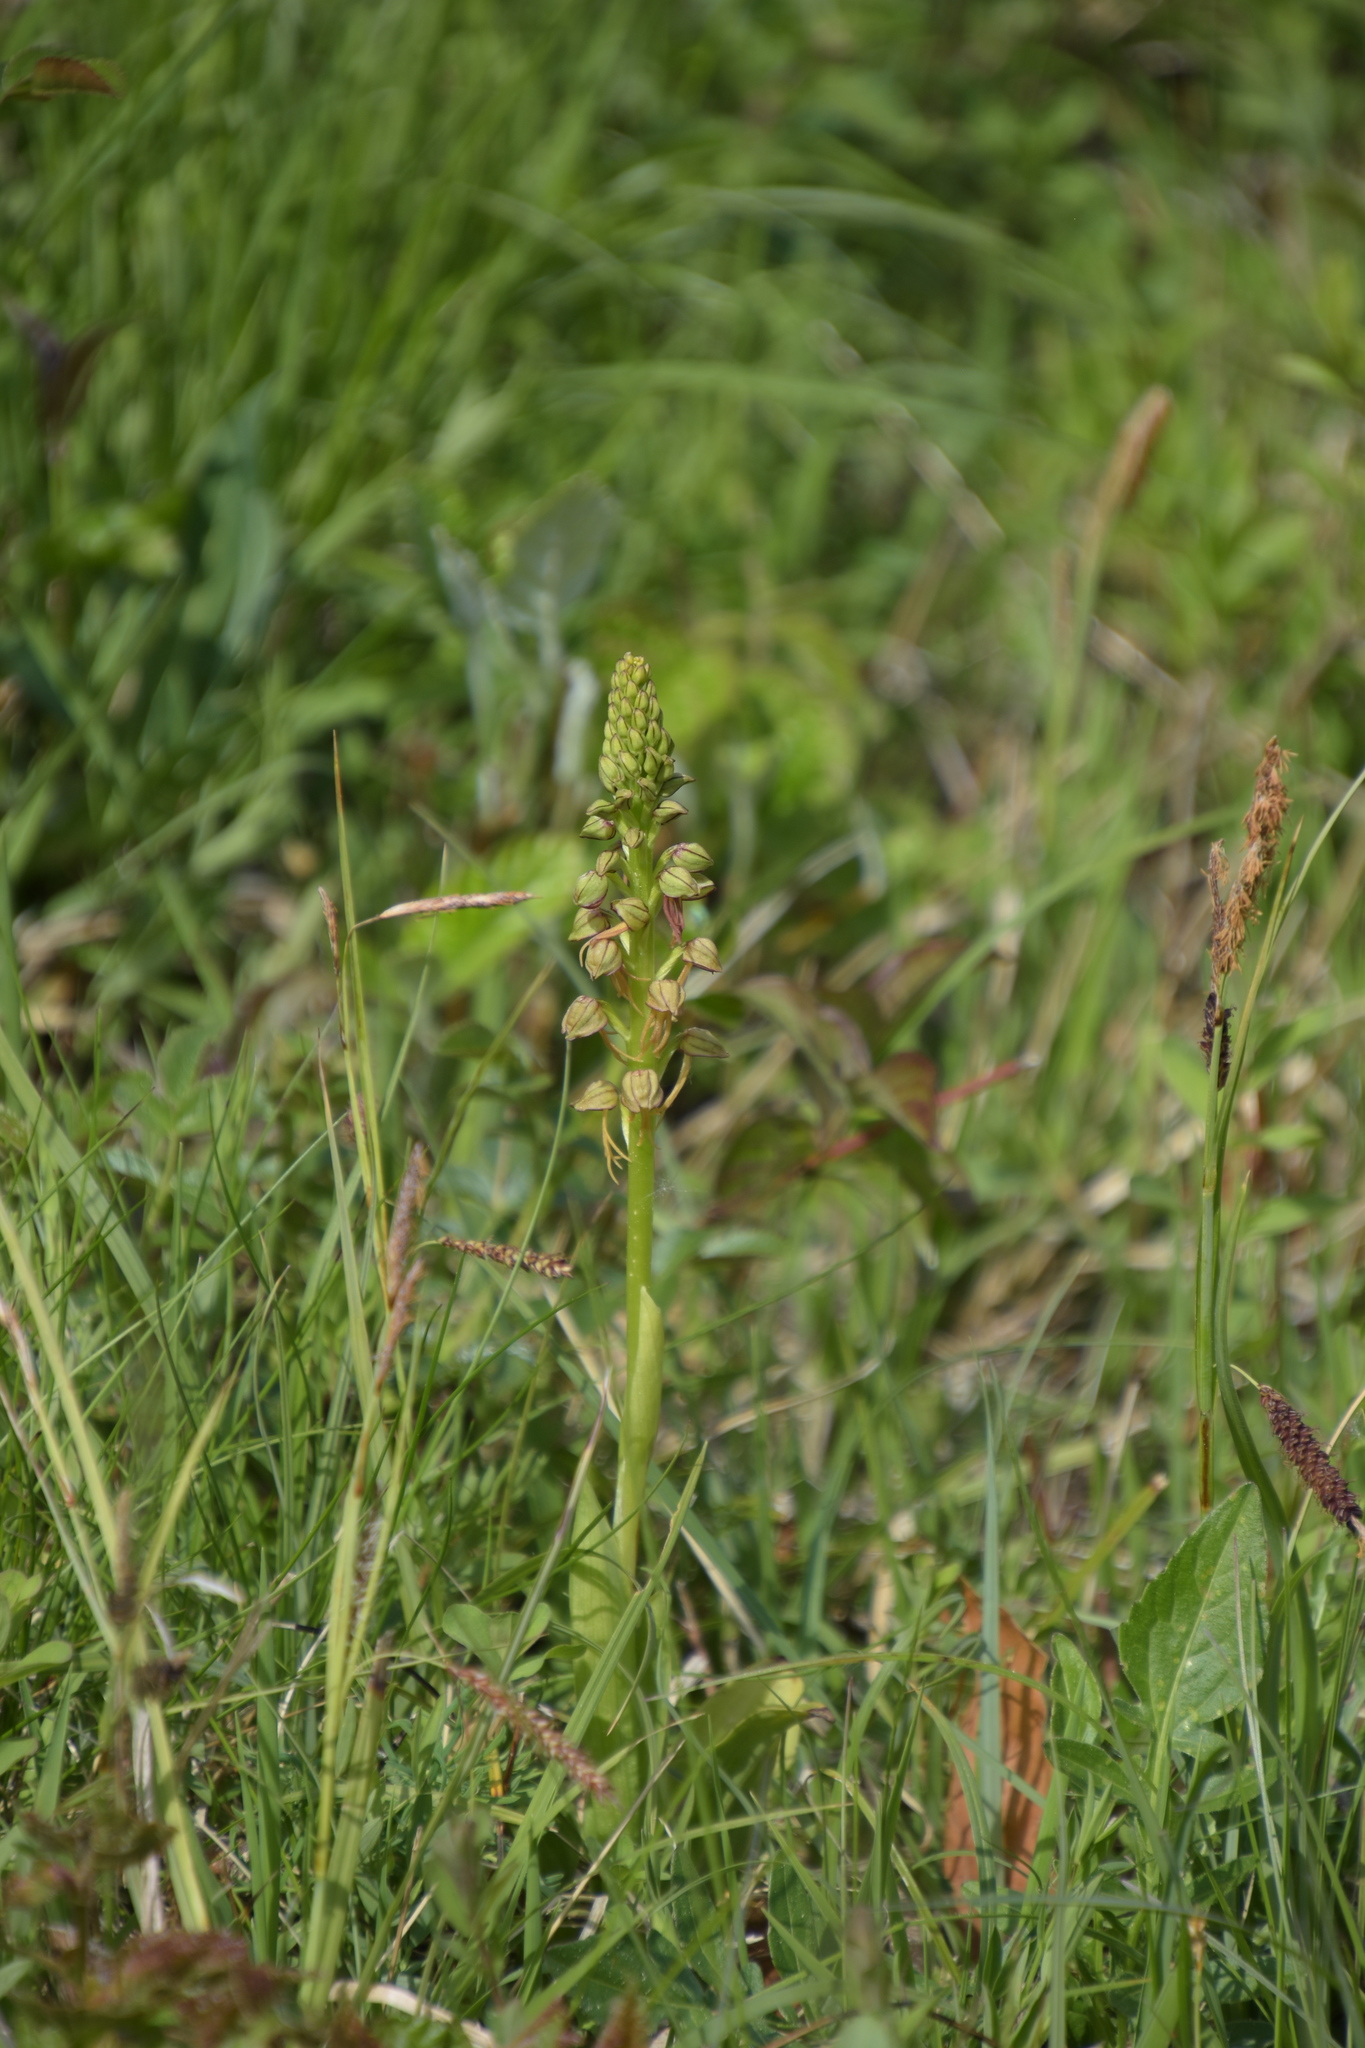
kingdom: Plantae
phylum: Tracheophyta
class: Liliopsida
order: Asparagales
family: Orchidaceae
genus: Orchis
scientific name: Orchis anthropophora
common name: Man orchid
